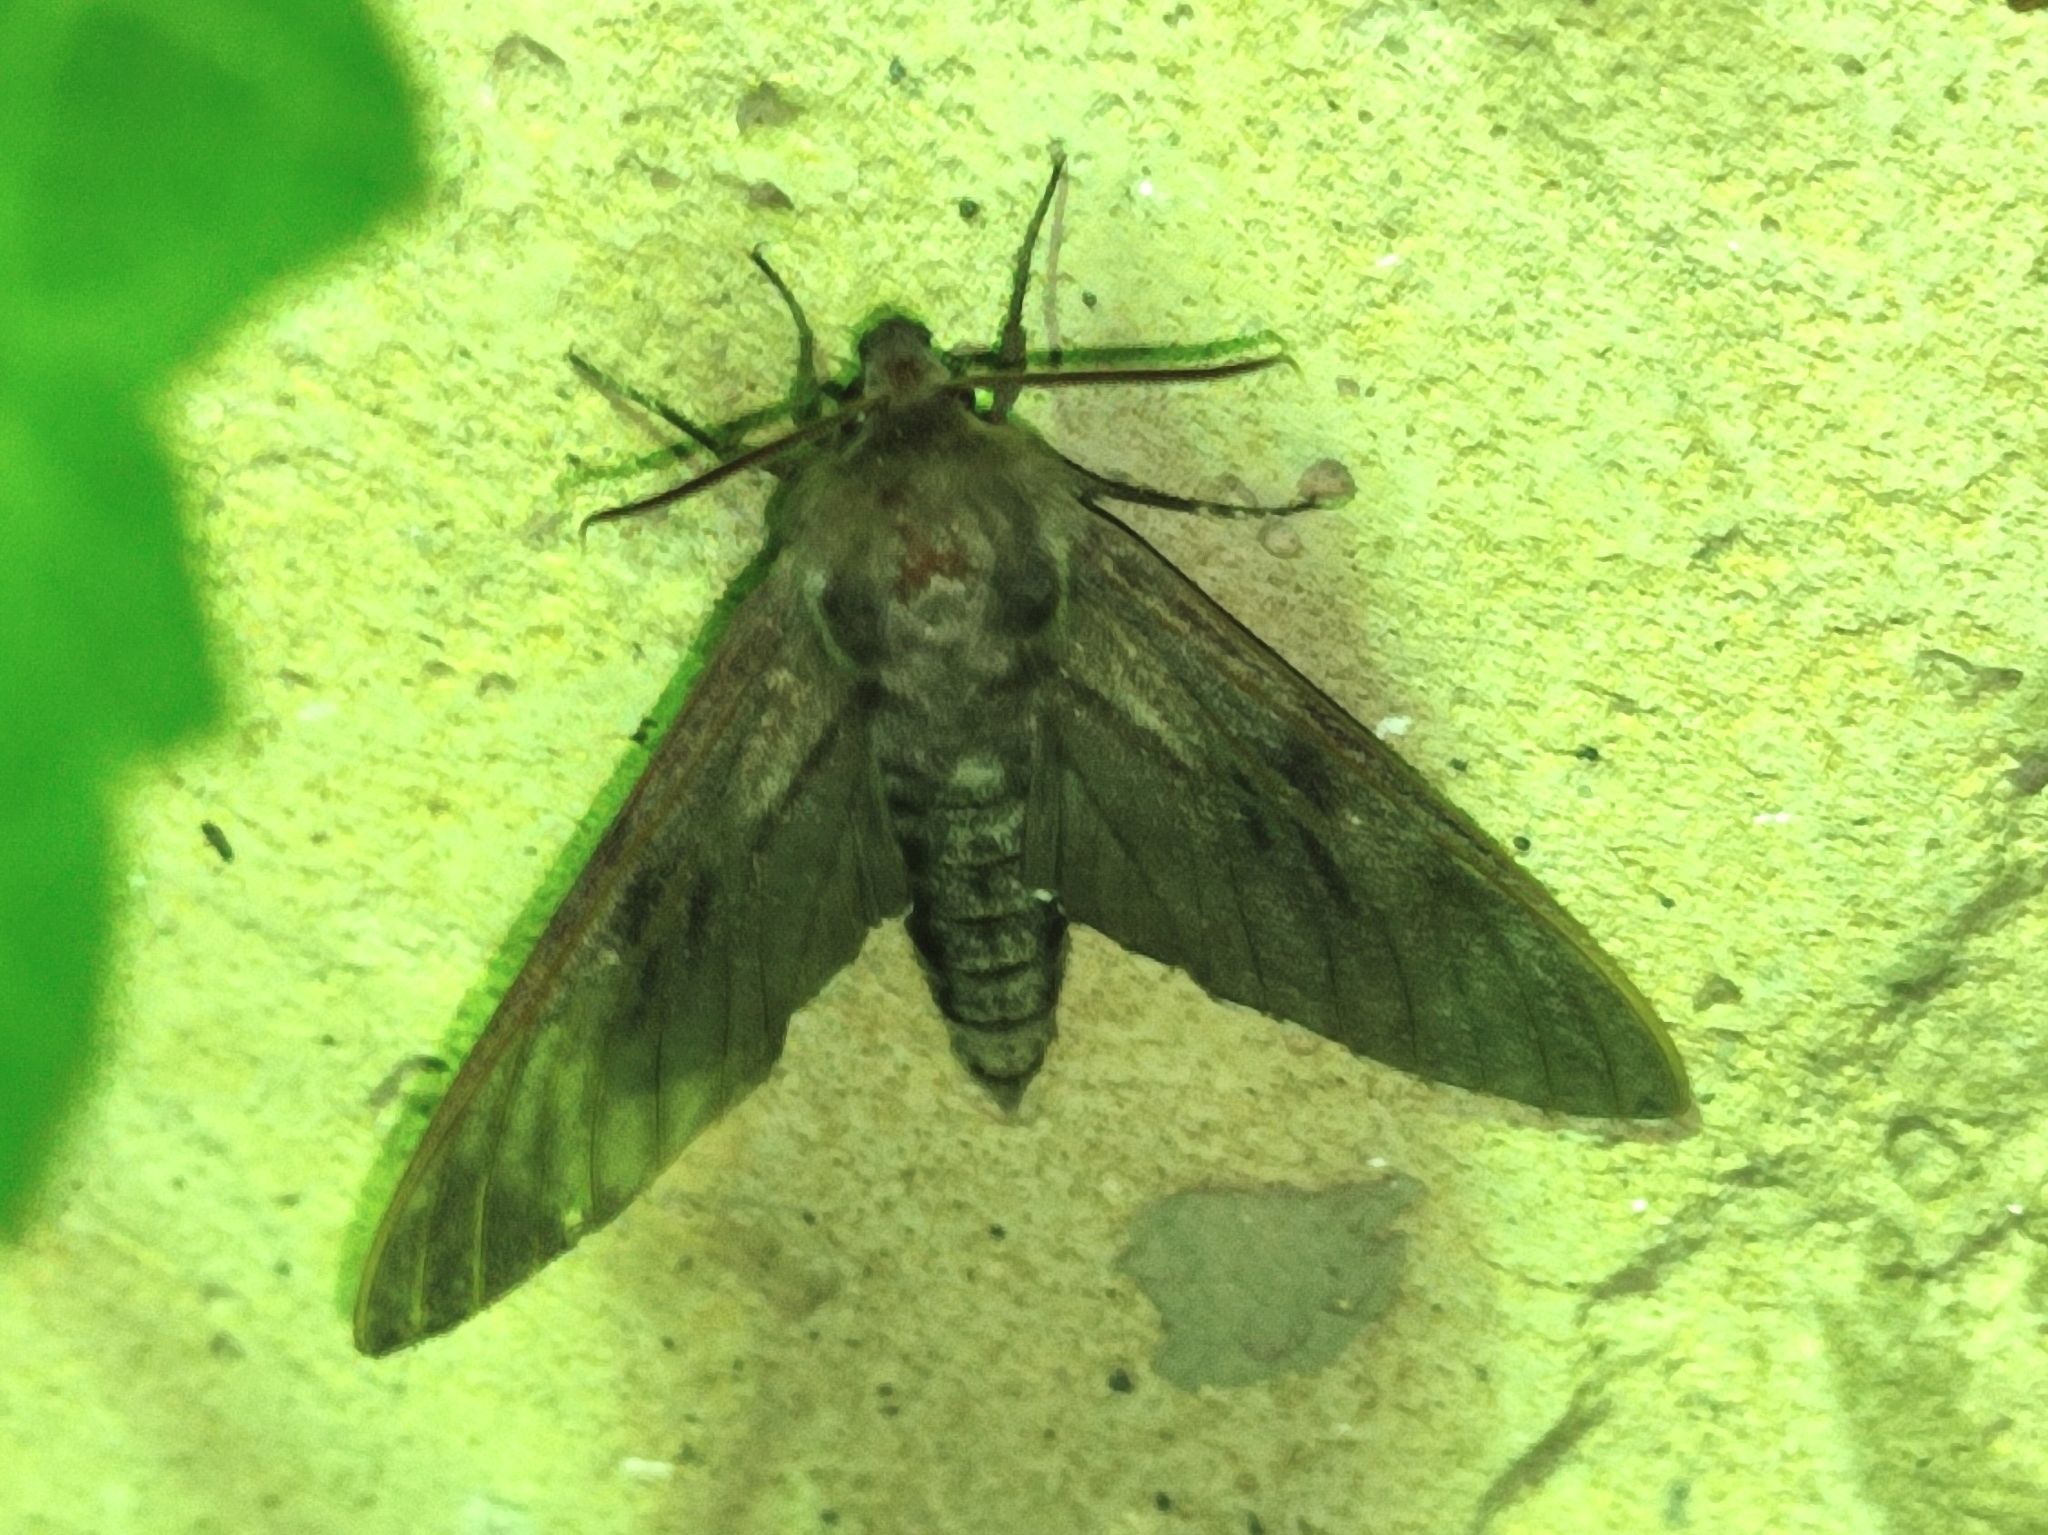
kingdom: Animalia
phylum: Arthropoda
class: Insecta
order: Lepidoptera
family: Sphingidae
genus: Sphinx
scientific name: Sphinx pinastri
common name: Pine hawk-moth
